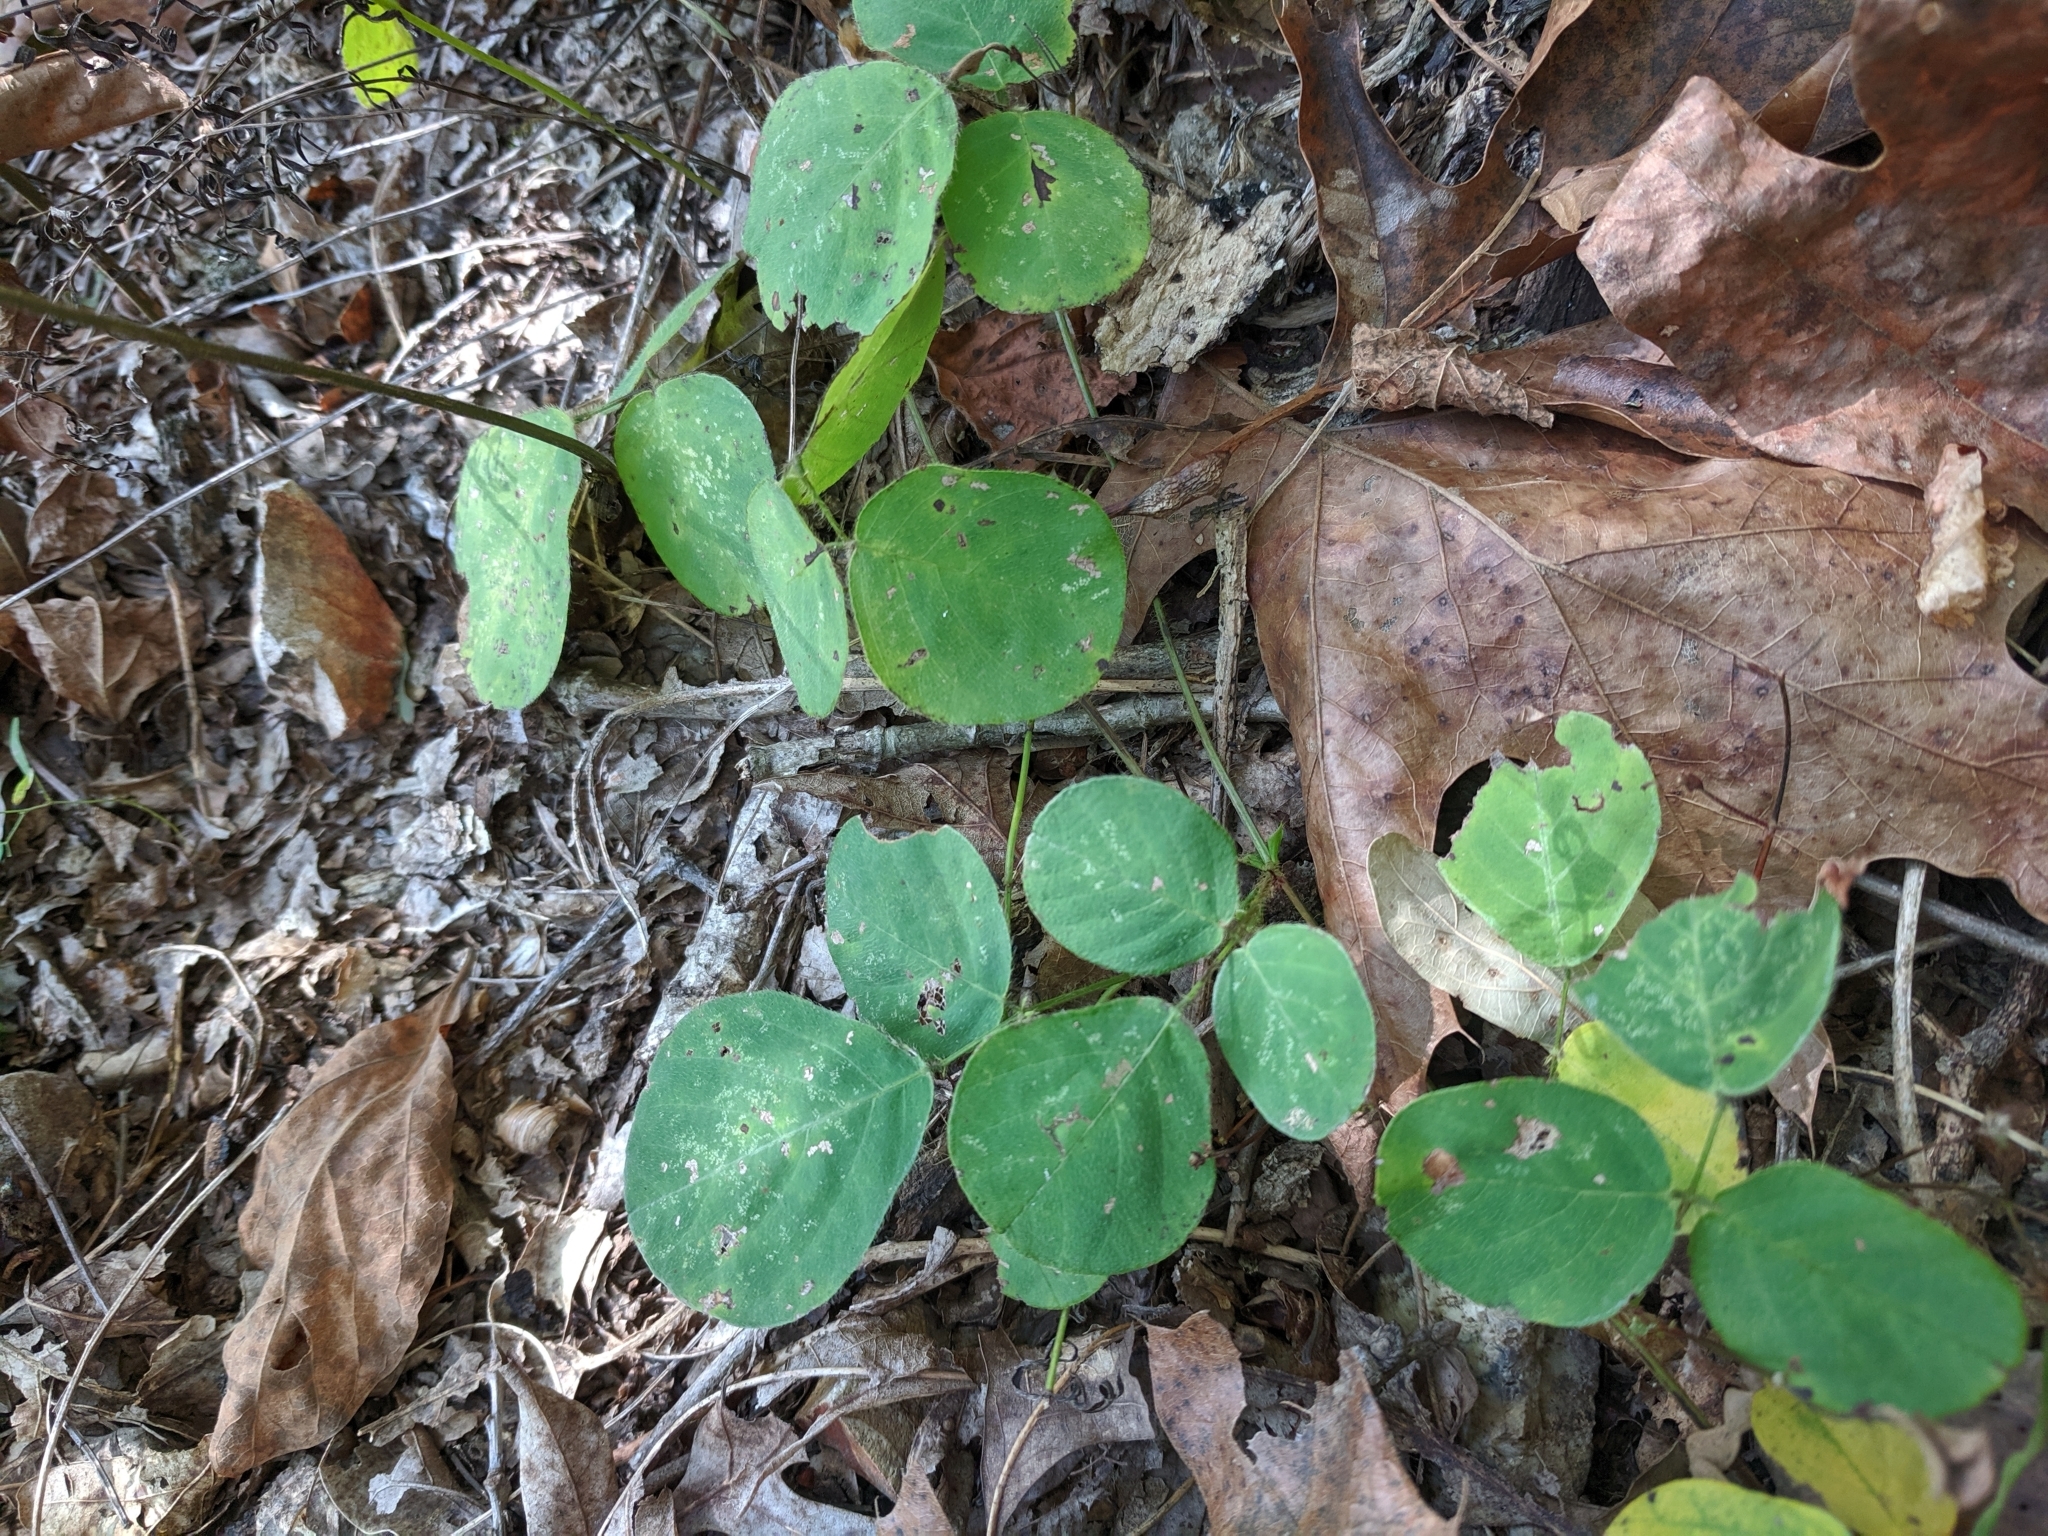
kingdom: Plantae
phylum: Tracheophyta
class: Magnoliopsida
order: Fabales
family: Fabaceae
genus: Desmodium
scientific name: Desmodium rotundifolium
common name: Dollarleaf
